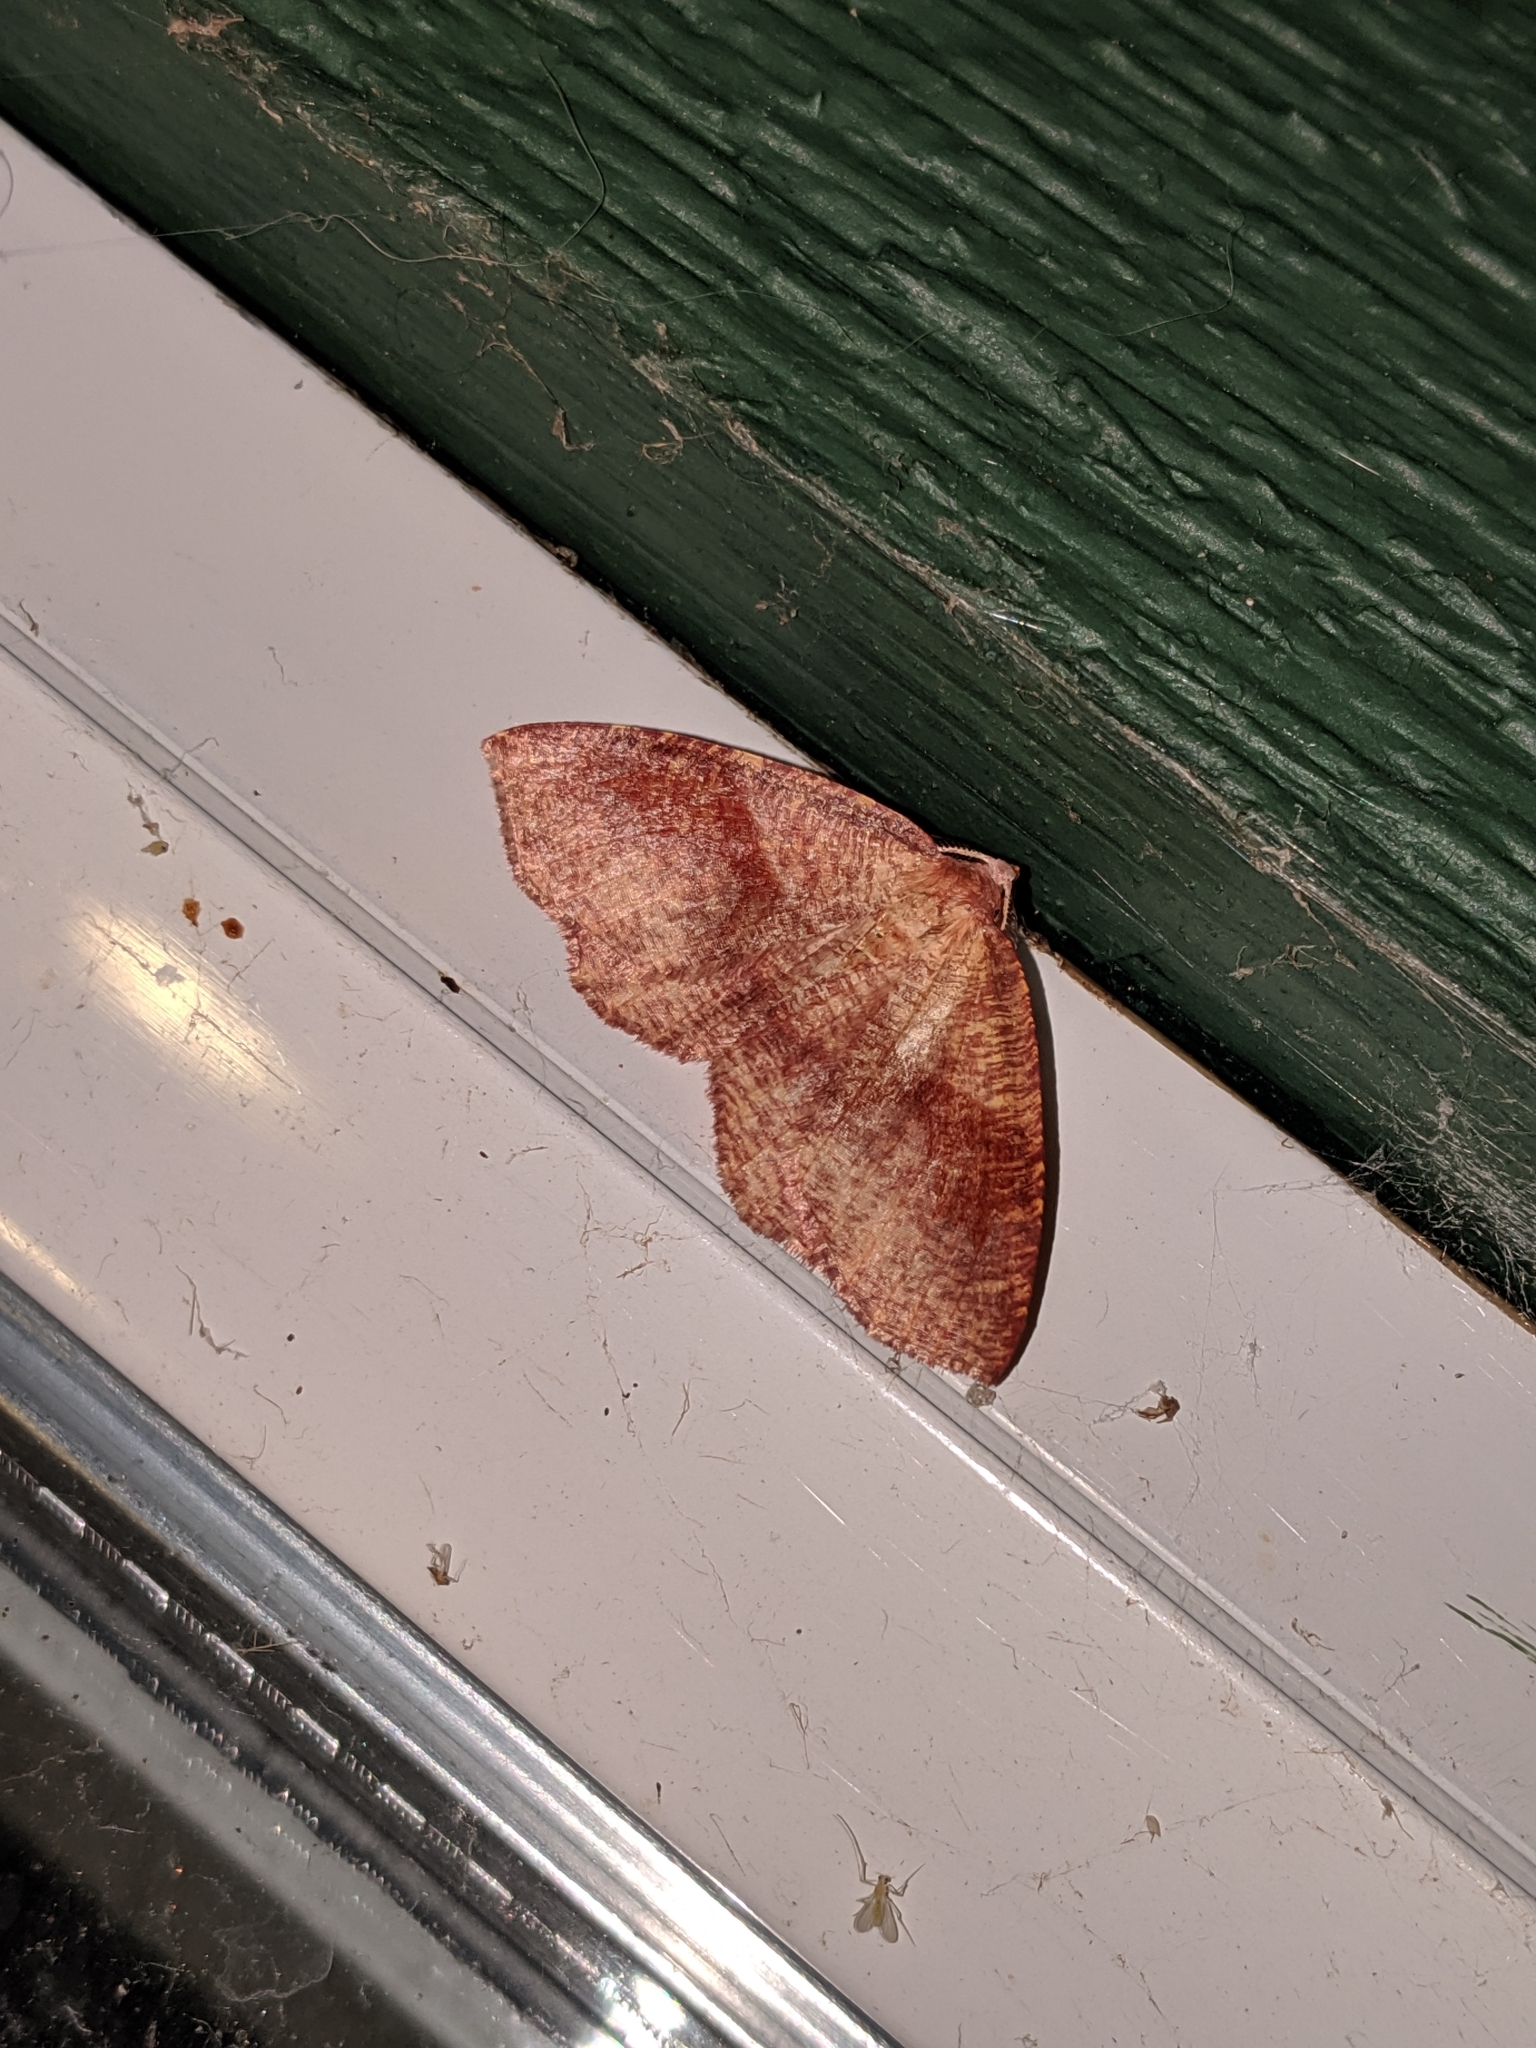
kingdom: Animalia
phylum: Arthropoda
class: Insecta
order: Lepidoptera
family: Geometridae
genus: Plagodis
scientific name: Plagodis pulveraria
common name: Barred umber
